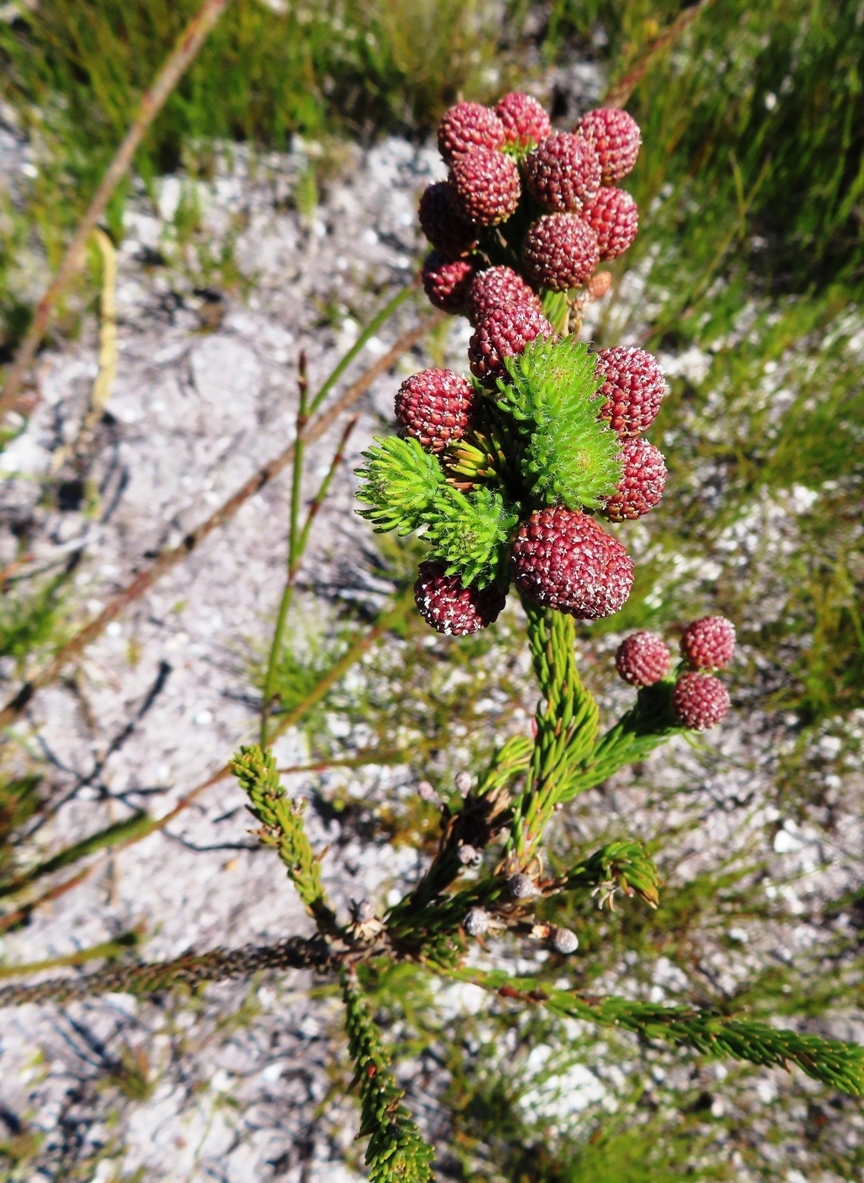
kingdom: Plantae
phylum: Tracheophyta
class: Magnoliopsida
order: Bruniales
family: Bruniaceae
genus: Berzelia
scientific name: Berzelia incurva
